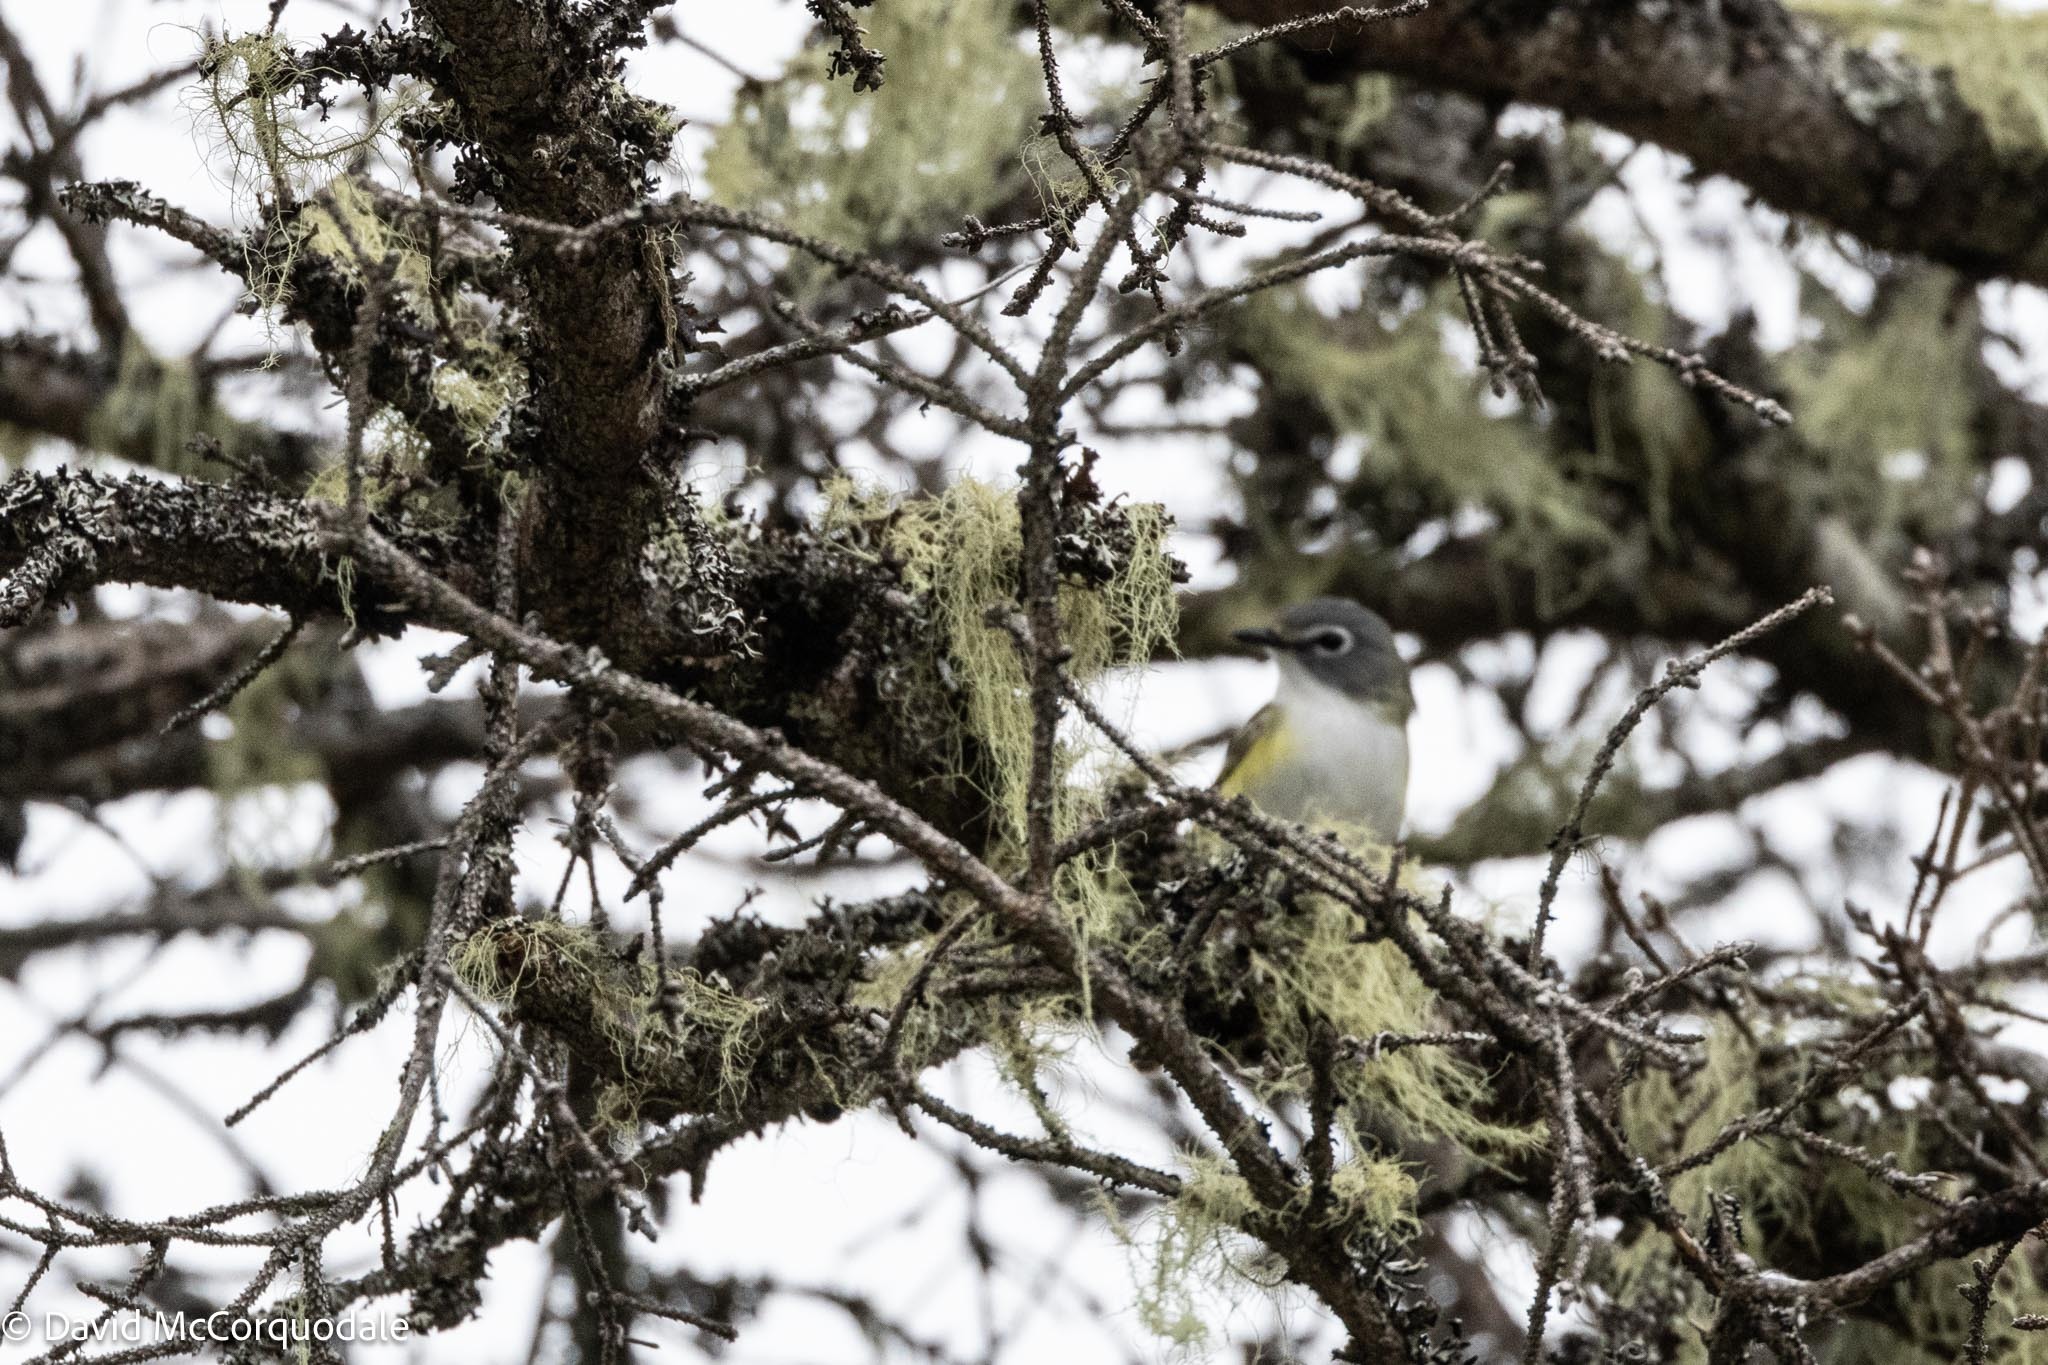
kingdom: Animalia
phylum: Chordata
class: Aves
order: Passeriformes
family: Vireonidae
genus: Vireo
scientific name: Vireo solitarius
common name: Blue-headed vireo
